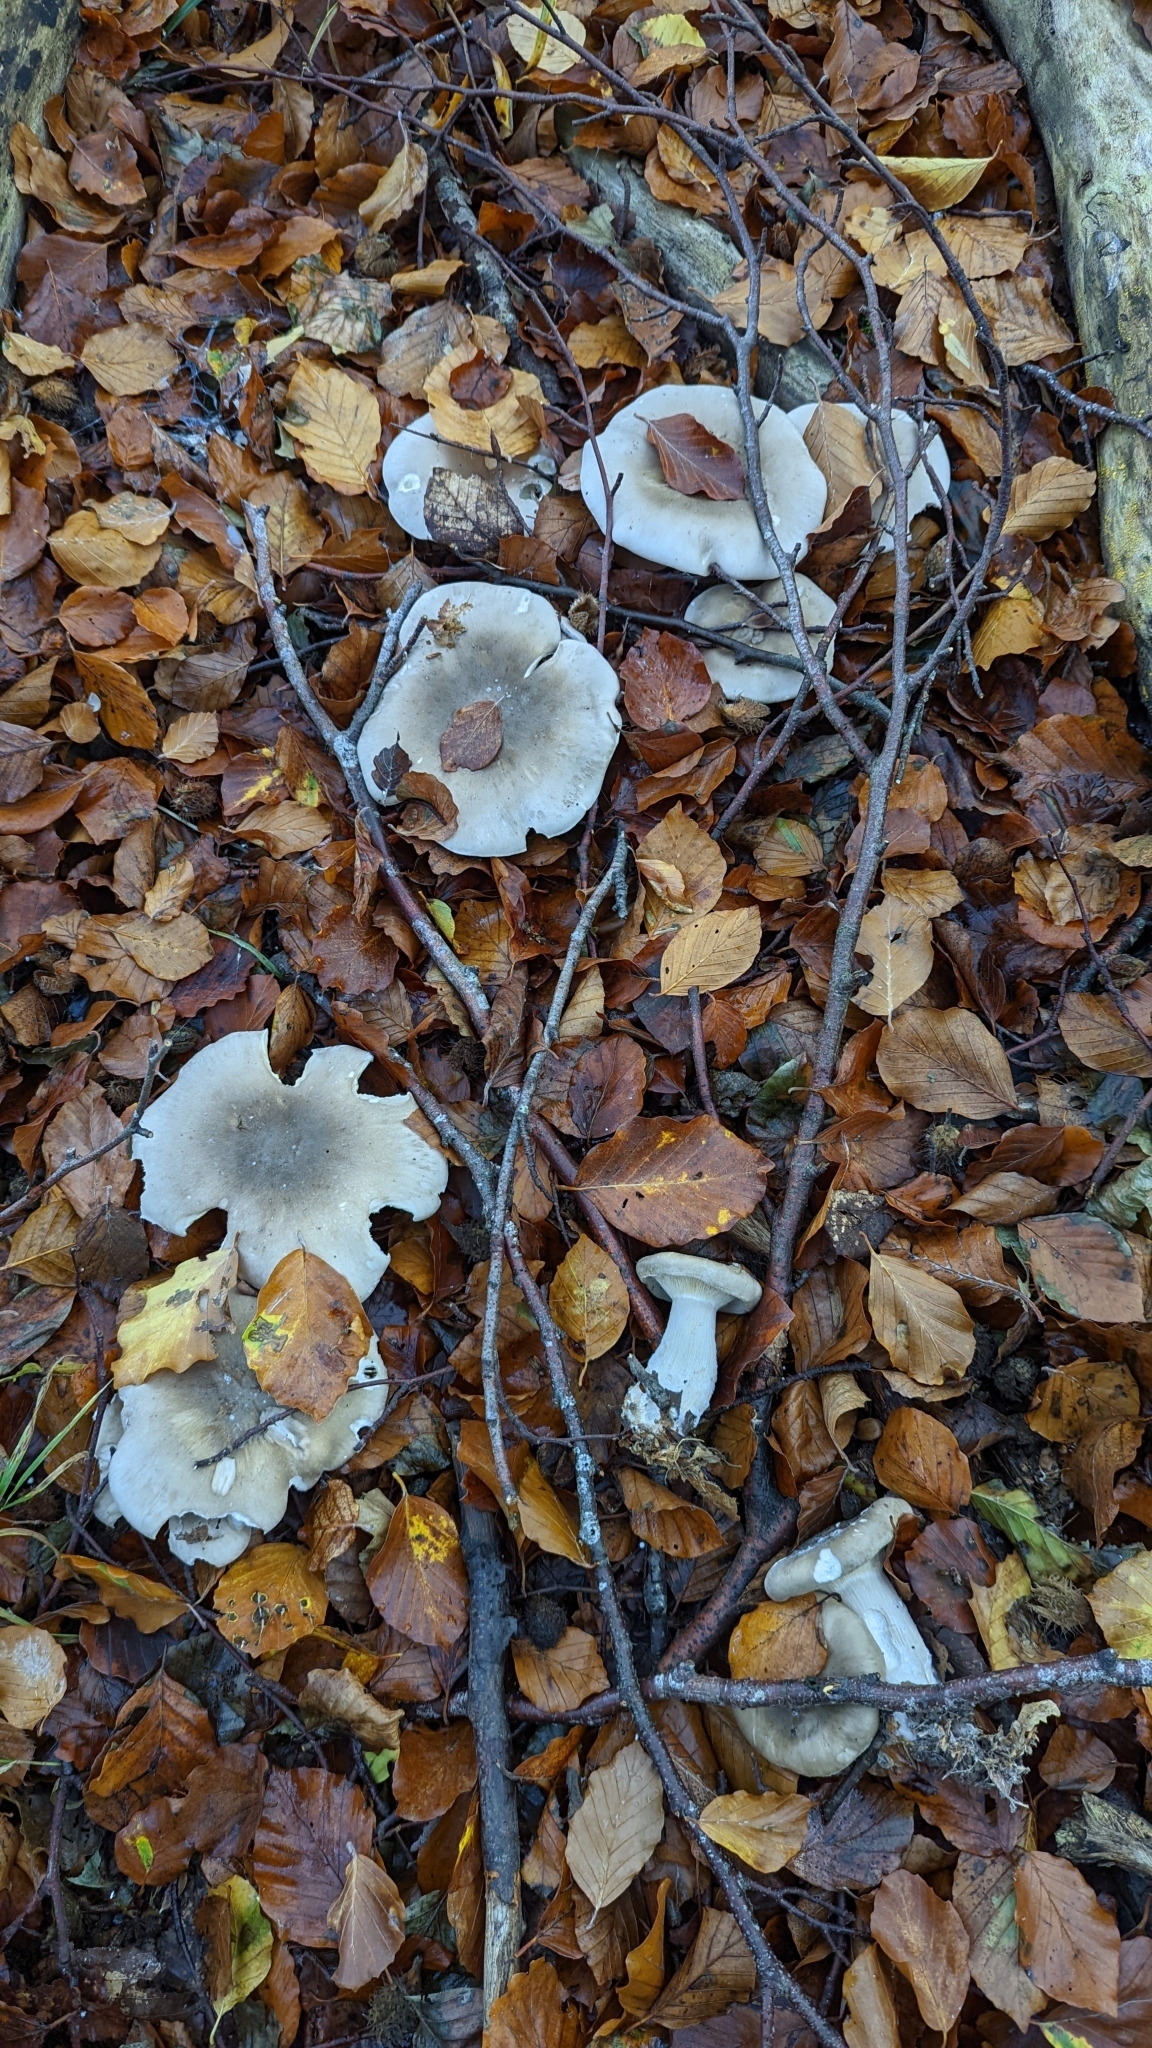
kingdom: Fungi
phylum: Basidiomycota
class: Agaricomycetes
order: Agaricales
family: Tricholomataceae
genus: Clitocybe
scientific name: Clitocybe nebularis
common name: Clouded agaric
